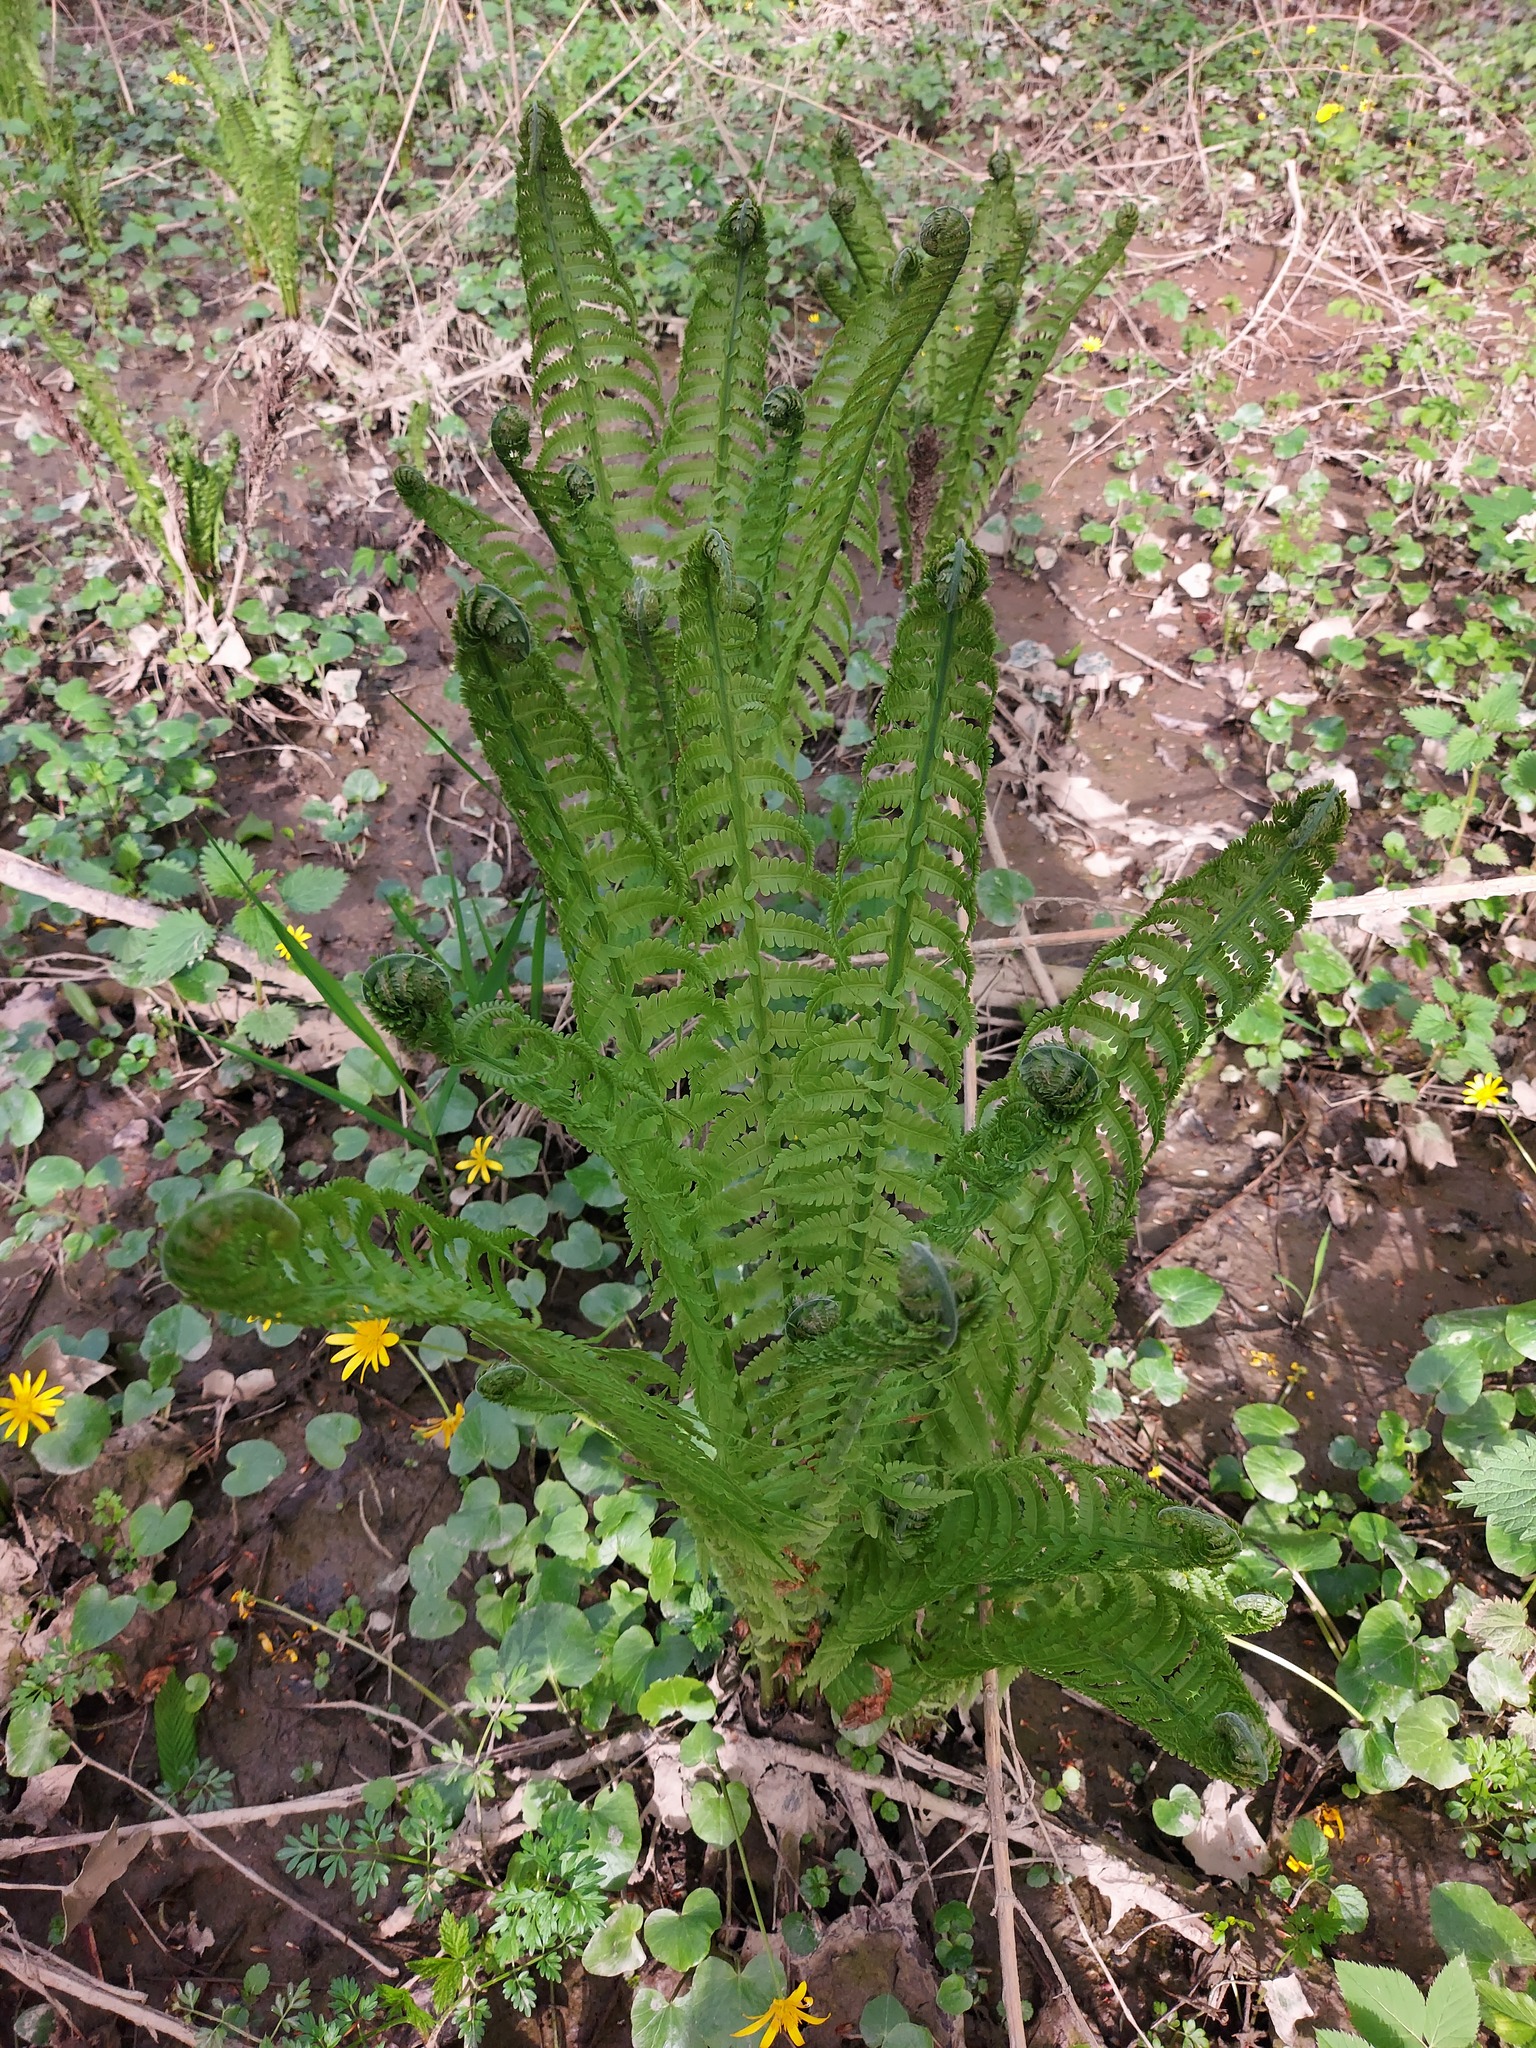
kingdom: Plantae
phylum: Tracheophyta
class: Polypodiopsida
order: Polypodiales
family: Onocleaceae
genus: Matteuccia
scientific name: Matteuccia struthiopteris
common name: Ostrich fern
